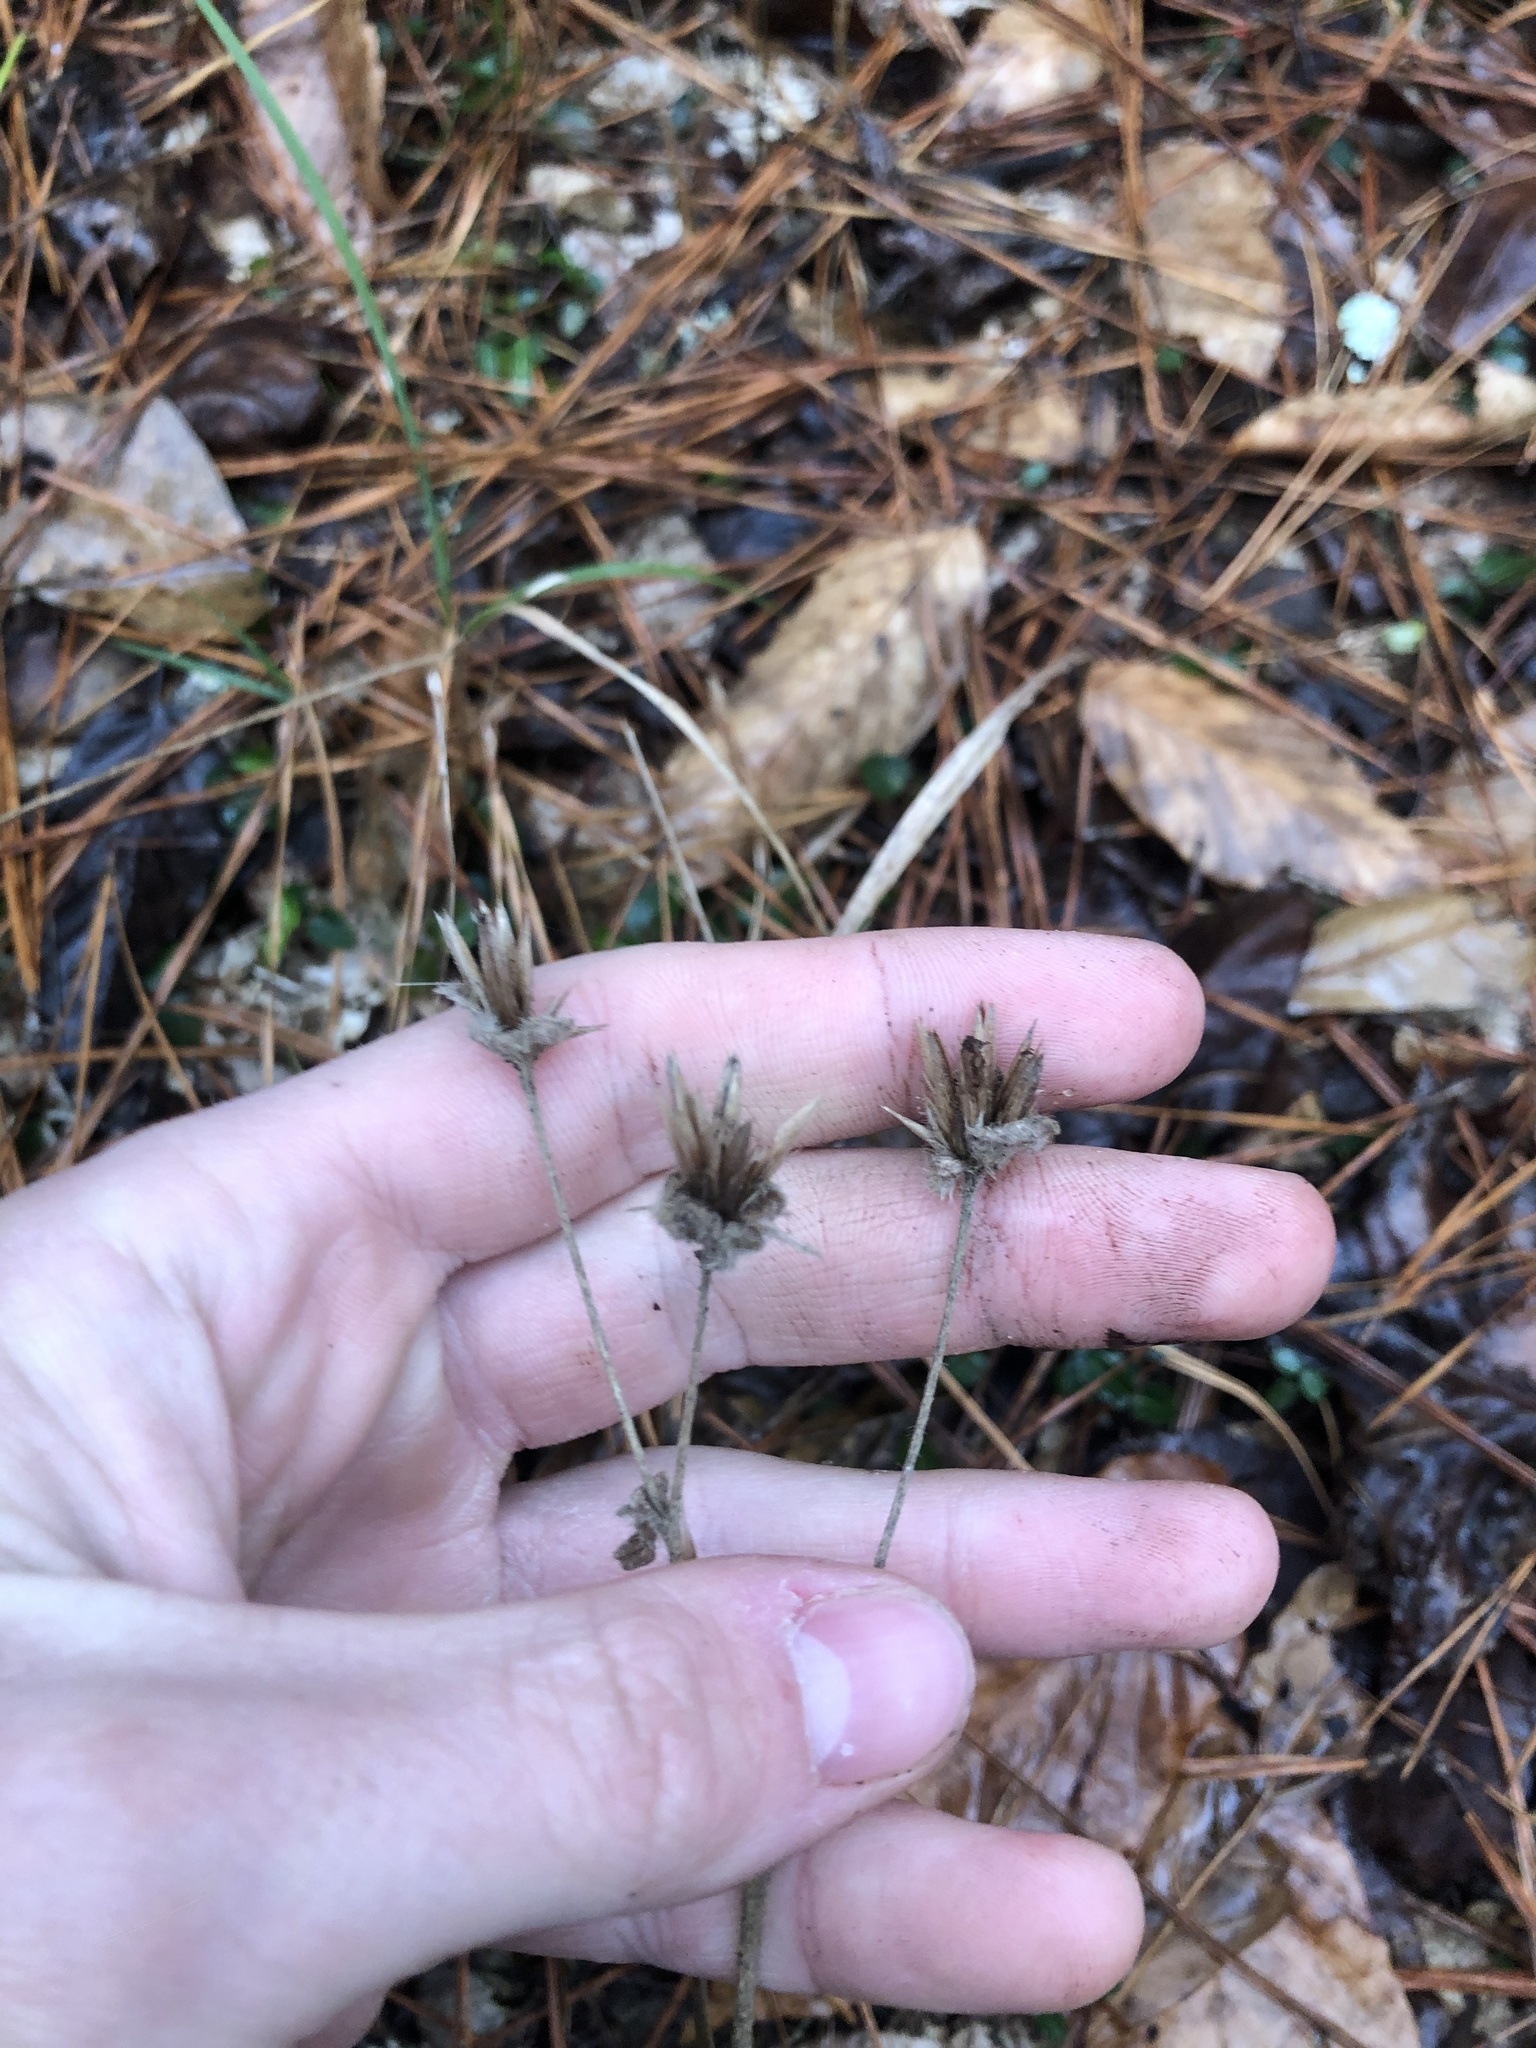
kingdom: Plantae
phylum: Tracheophyta
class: Magnoliopsida
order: Asterales
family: Asteraceae
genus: Elephantopus
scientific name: Elephantopus tomentosus
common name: Tobacco-weed
